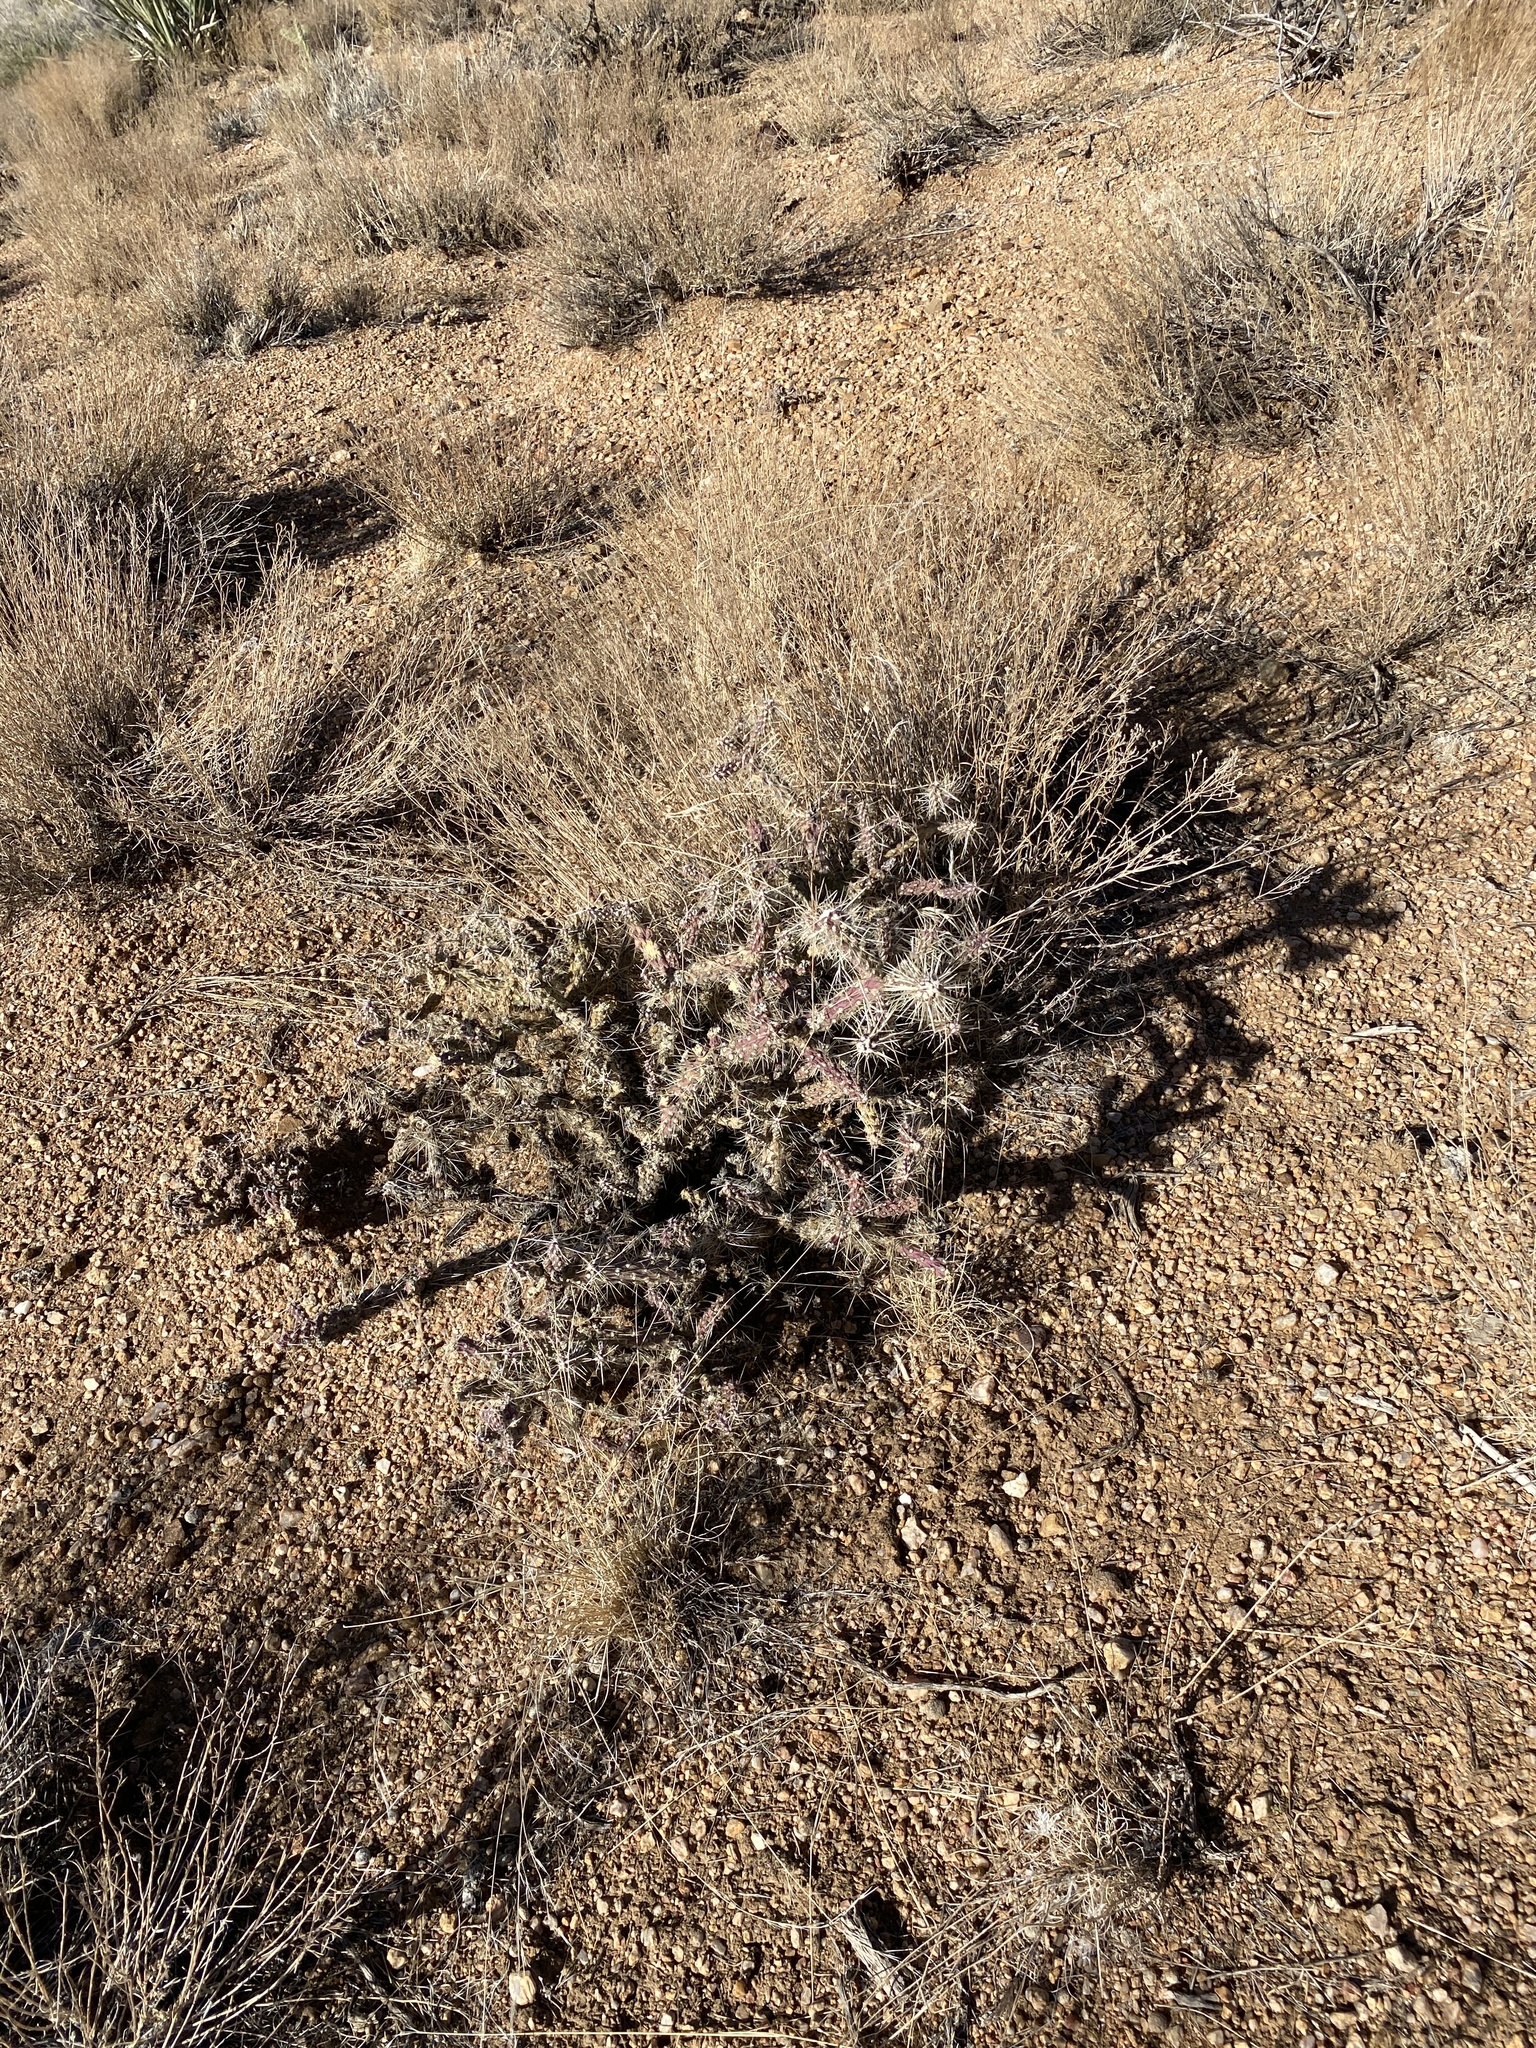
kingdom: Plantae
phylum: Tracheophyta
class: Magnoliopsida
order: Caryophyllales
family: Cactaceae
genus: Cylindropuntia
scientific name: Cylindropuntia echinocarpa
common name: Ground cholla
